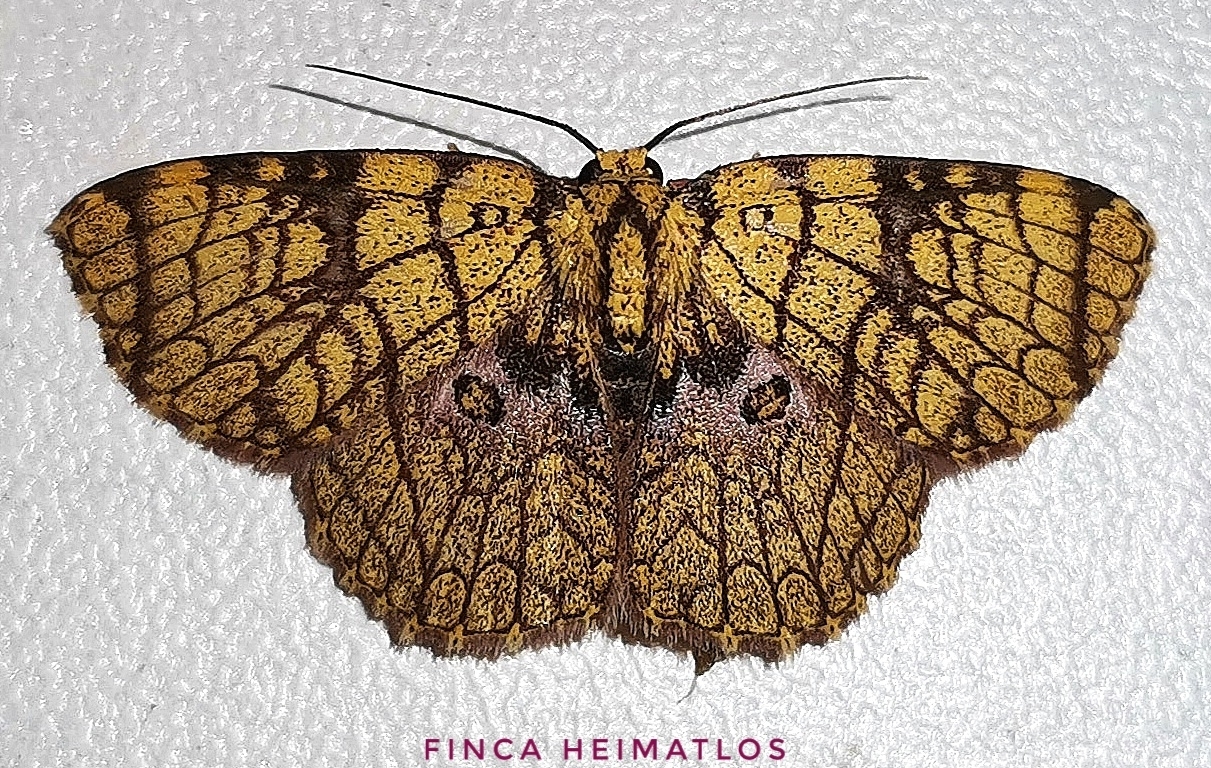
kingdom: Animalia
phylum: Arthropoda
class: Insecta
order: Lepidoptera
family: Geometridae
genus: Semaeopus
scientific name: Semaeopus scriptilinea
